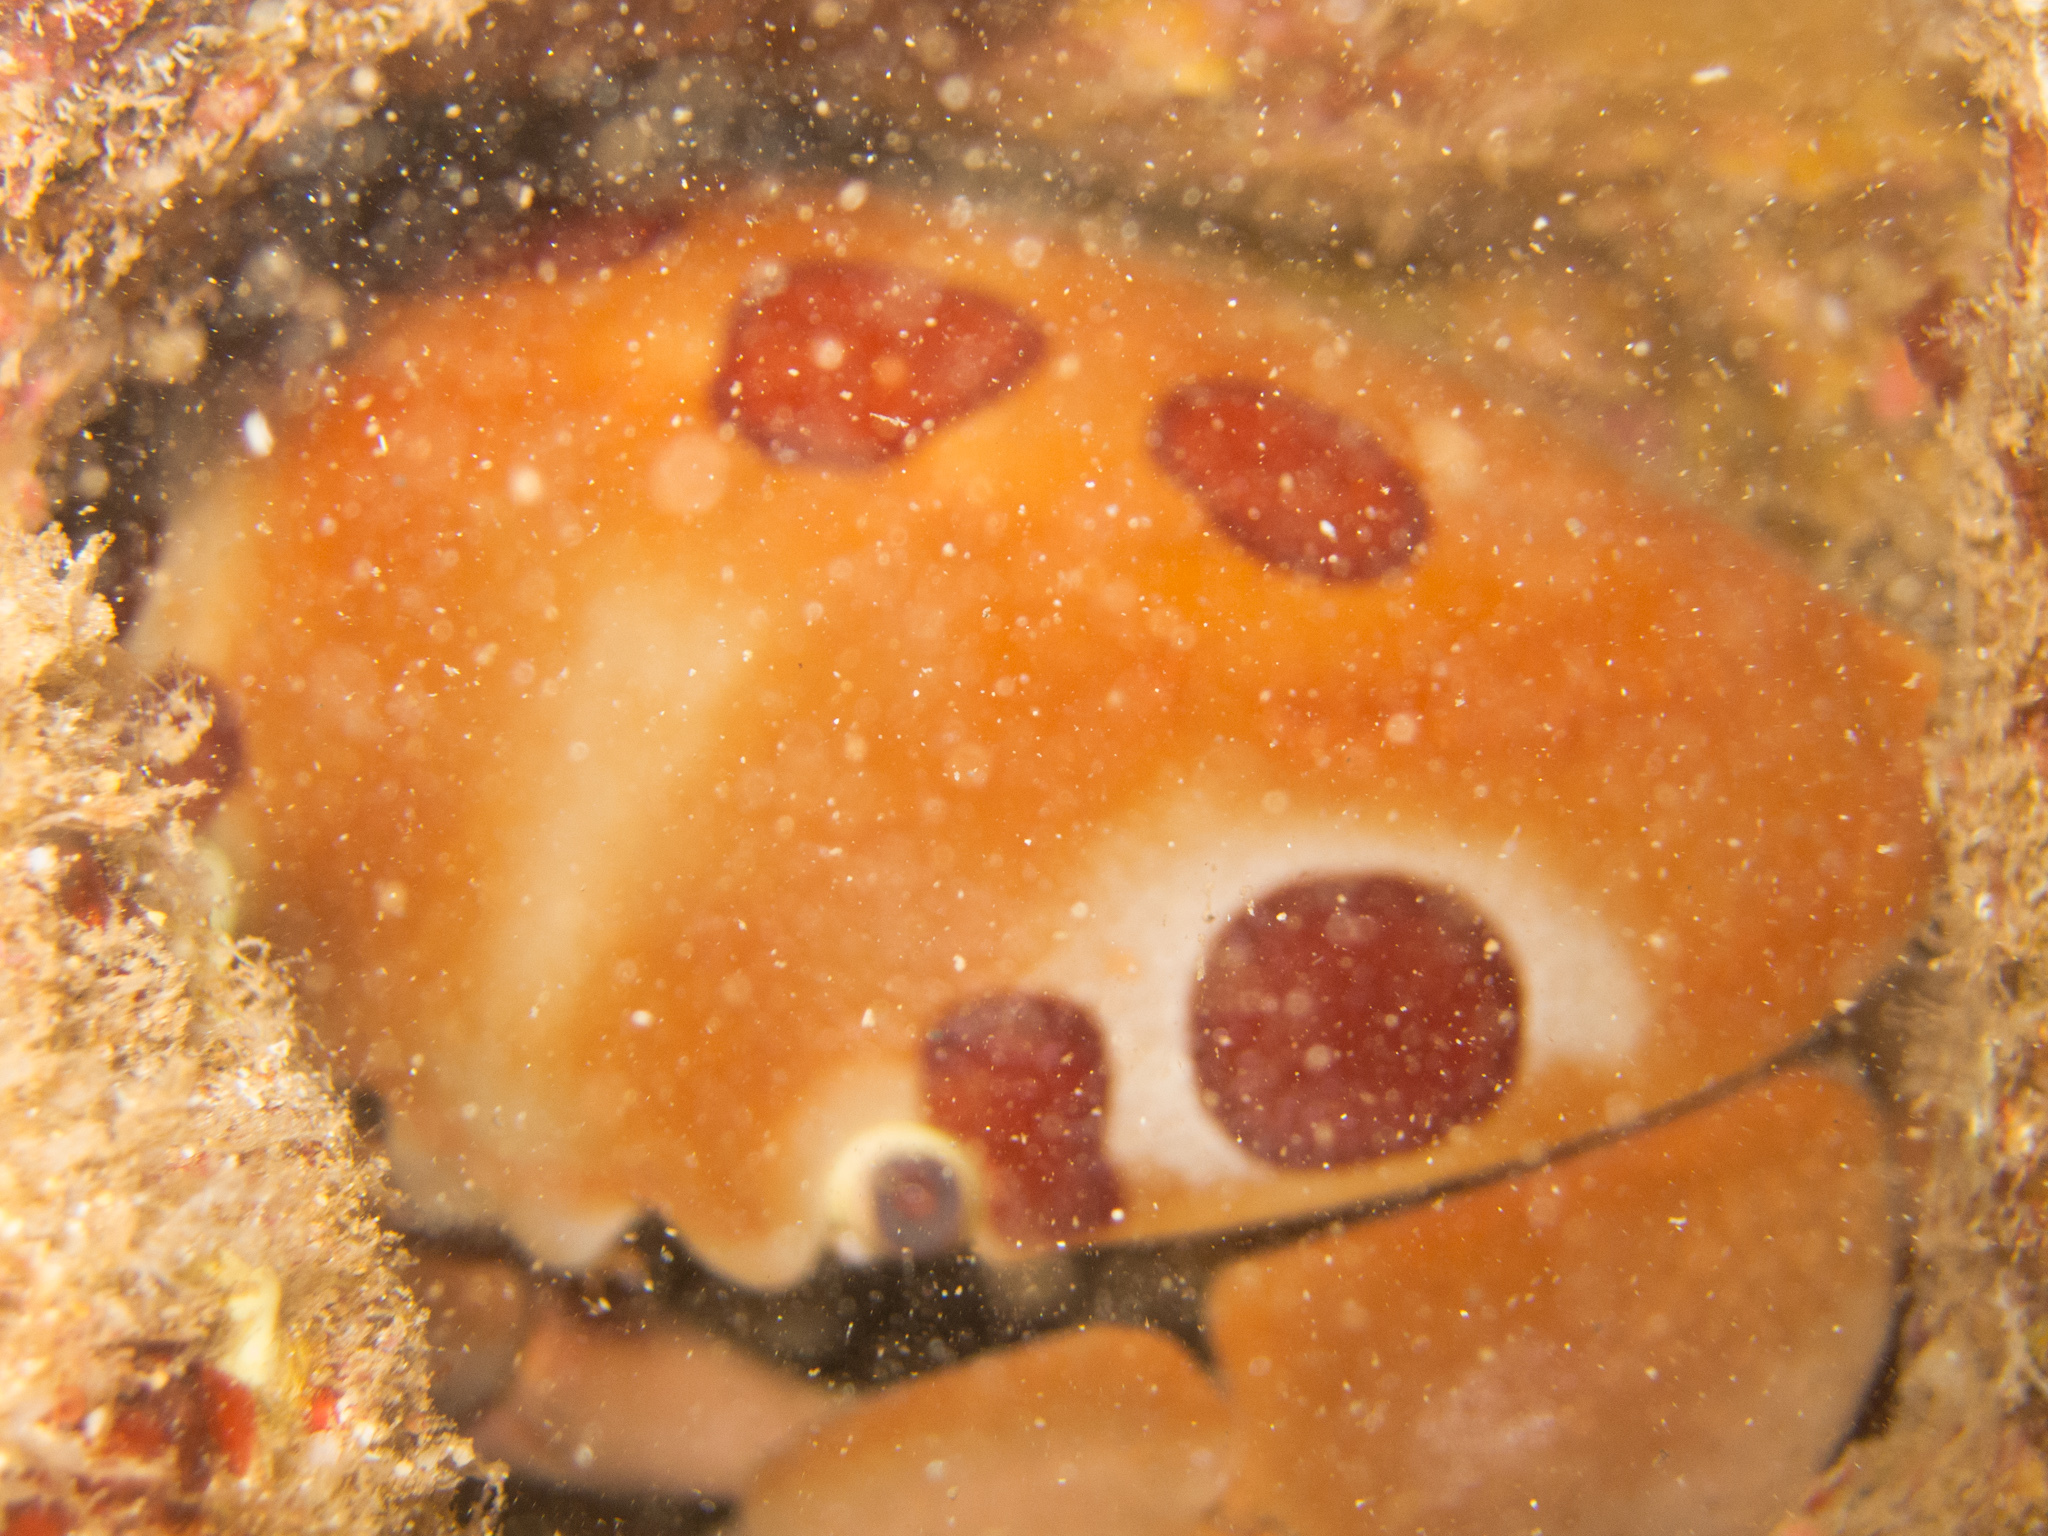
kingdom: Animalia
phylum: Arthropoda
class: Malacostraca
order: Decapoda
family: Carpiliidae
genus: Carpilius
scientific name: Carpilius maculatus
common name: Spotted reef crab
